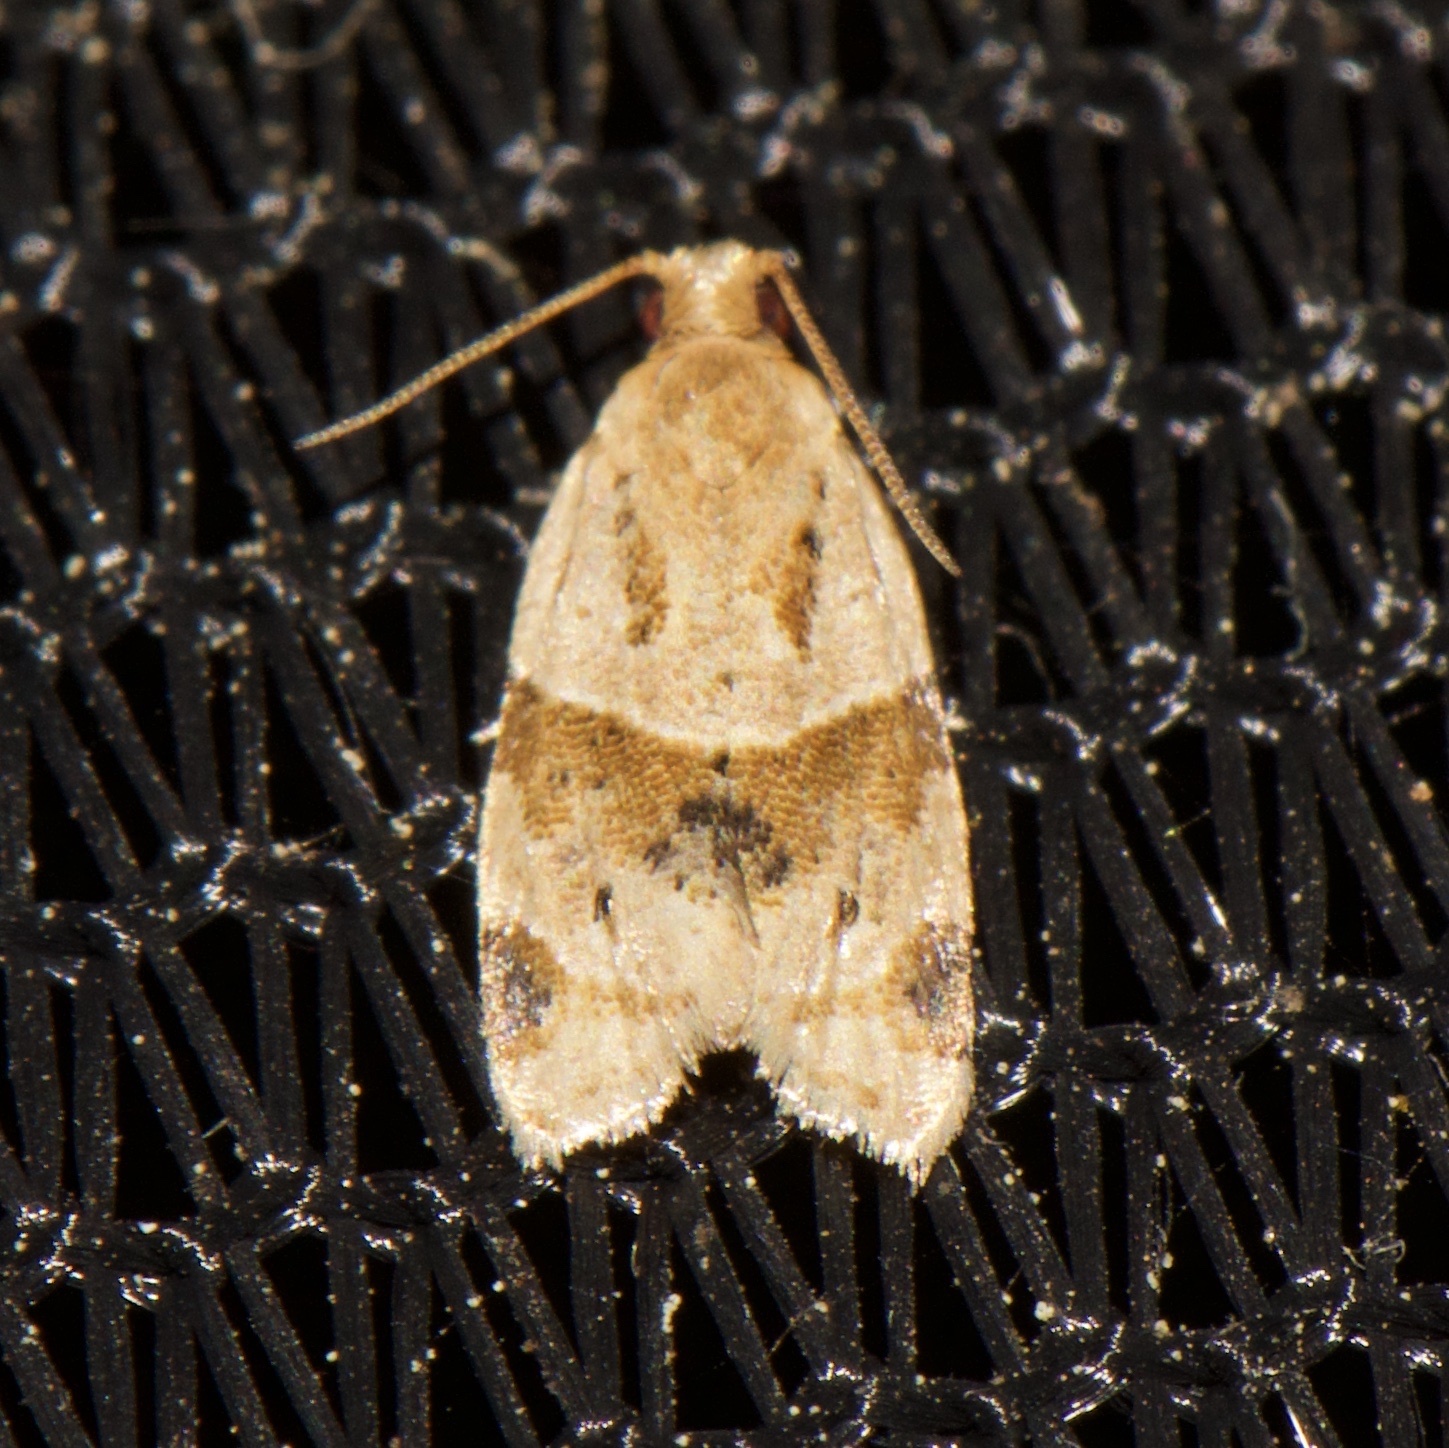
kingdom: Animalia
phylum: Arthropoda
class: Insecta
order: Lepidoptera
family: Tortricidae
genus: Clepsis
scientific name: Clepsis peritana
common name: Garden tortrix
